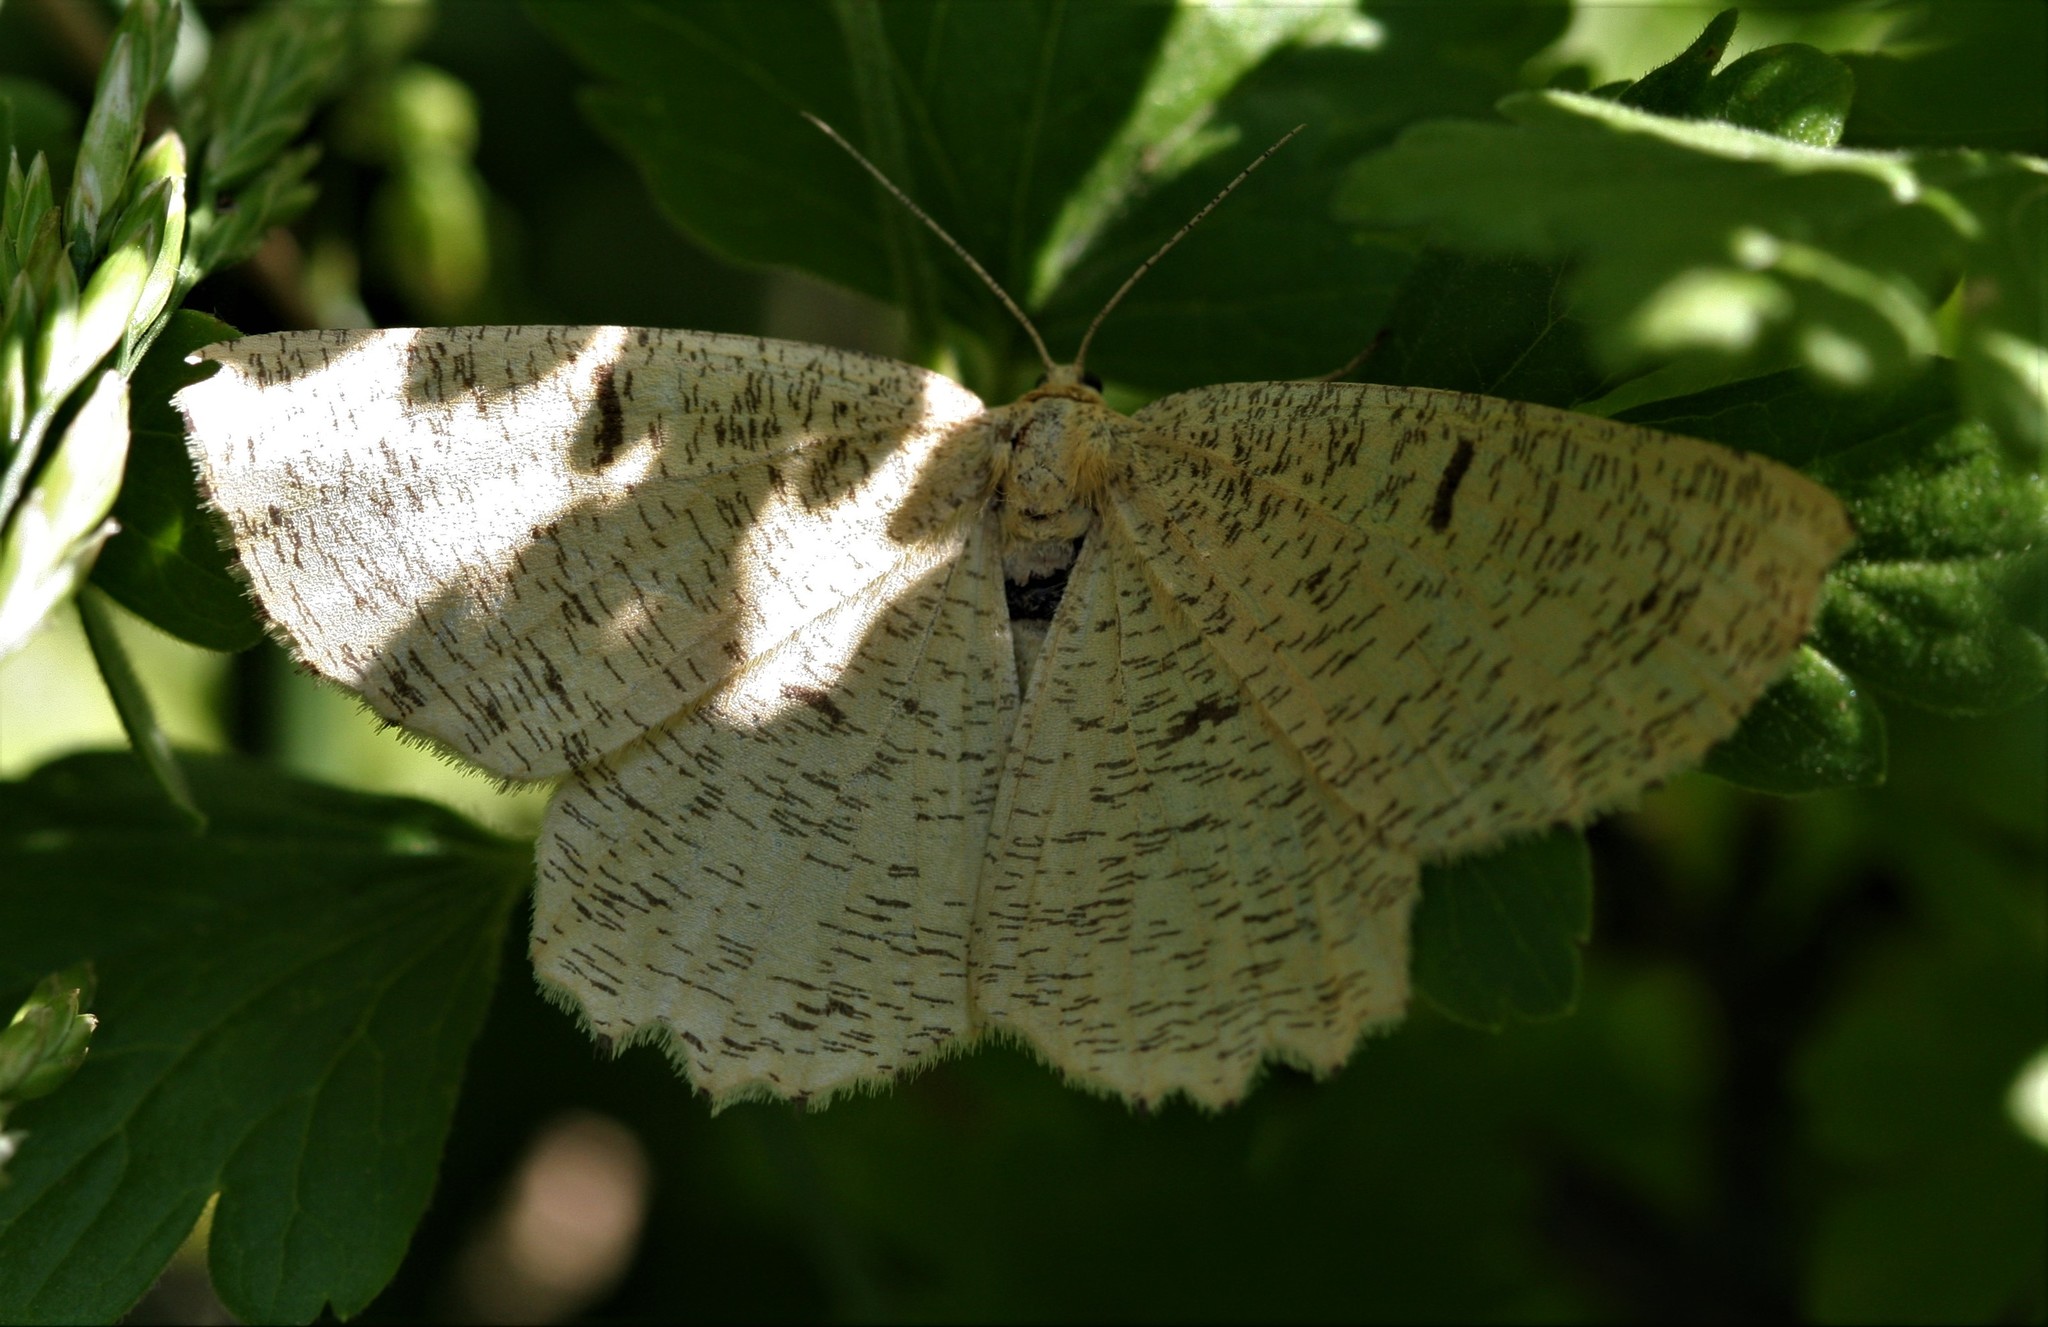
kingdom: Animalia
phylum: Arthropoda
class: Insecta
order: Lepidoptera
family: Geometridae
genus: Angerona
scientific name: Angerona prunaria
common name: Orange moth
